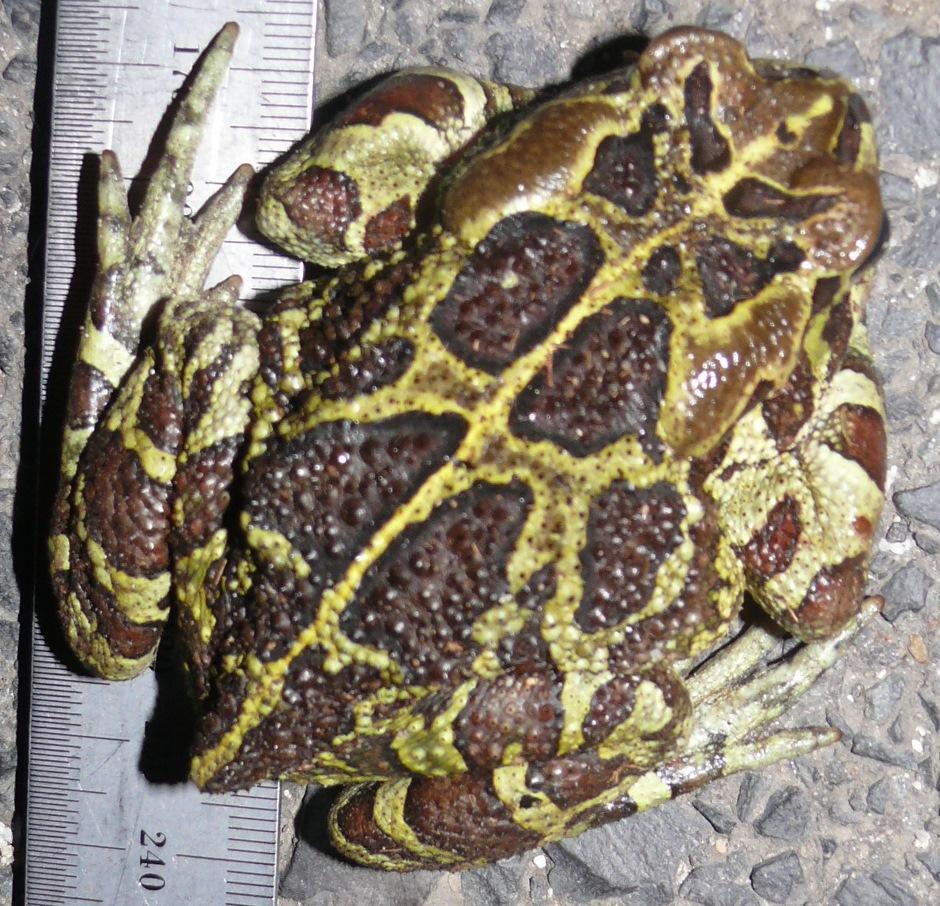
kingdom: Animalia
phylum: Chordata
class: Amphibia
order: Anura
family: Bufonidae
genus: Sclerophrys
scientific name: Sclerophrys pantherina
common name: Panther toad
